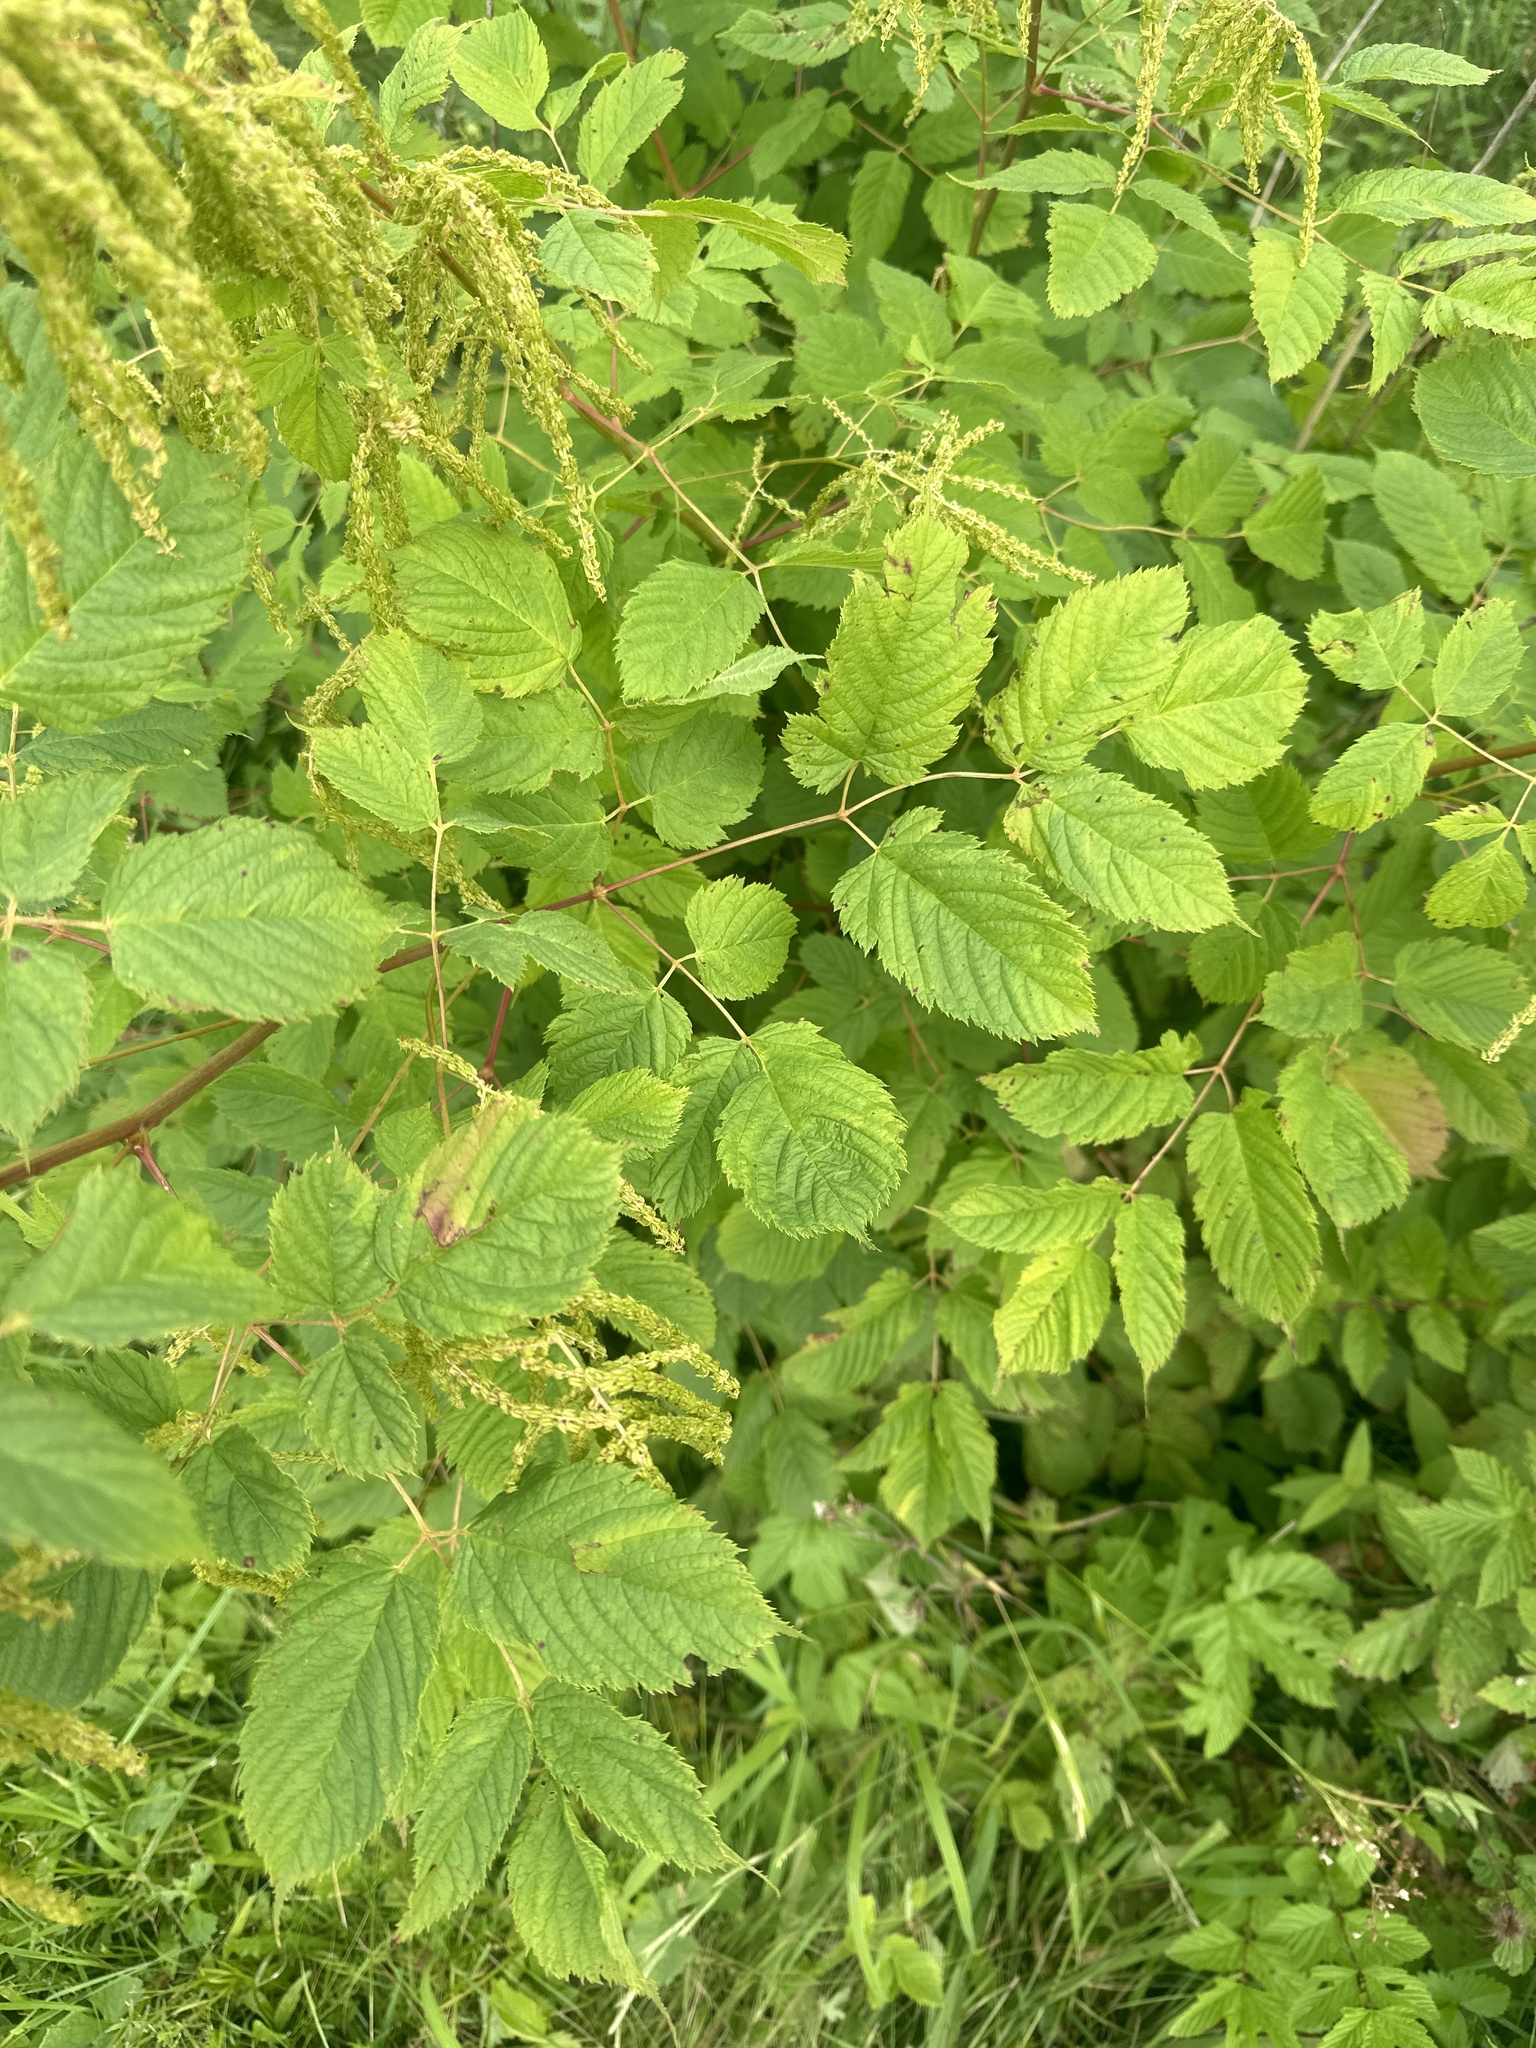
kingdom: Plantae
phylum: Tracheophyta
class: Magnoliopsida
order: Rosales
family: Rosaceae
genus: Aruncus
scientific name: Aruncus dioicus
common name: Buck's-beard
